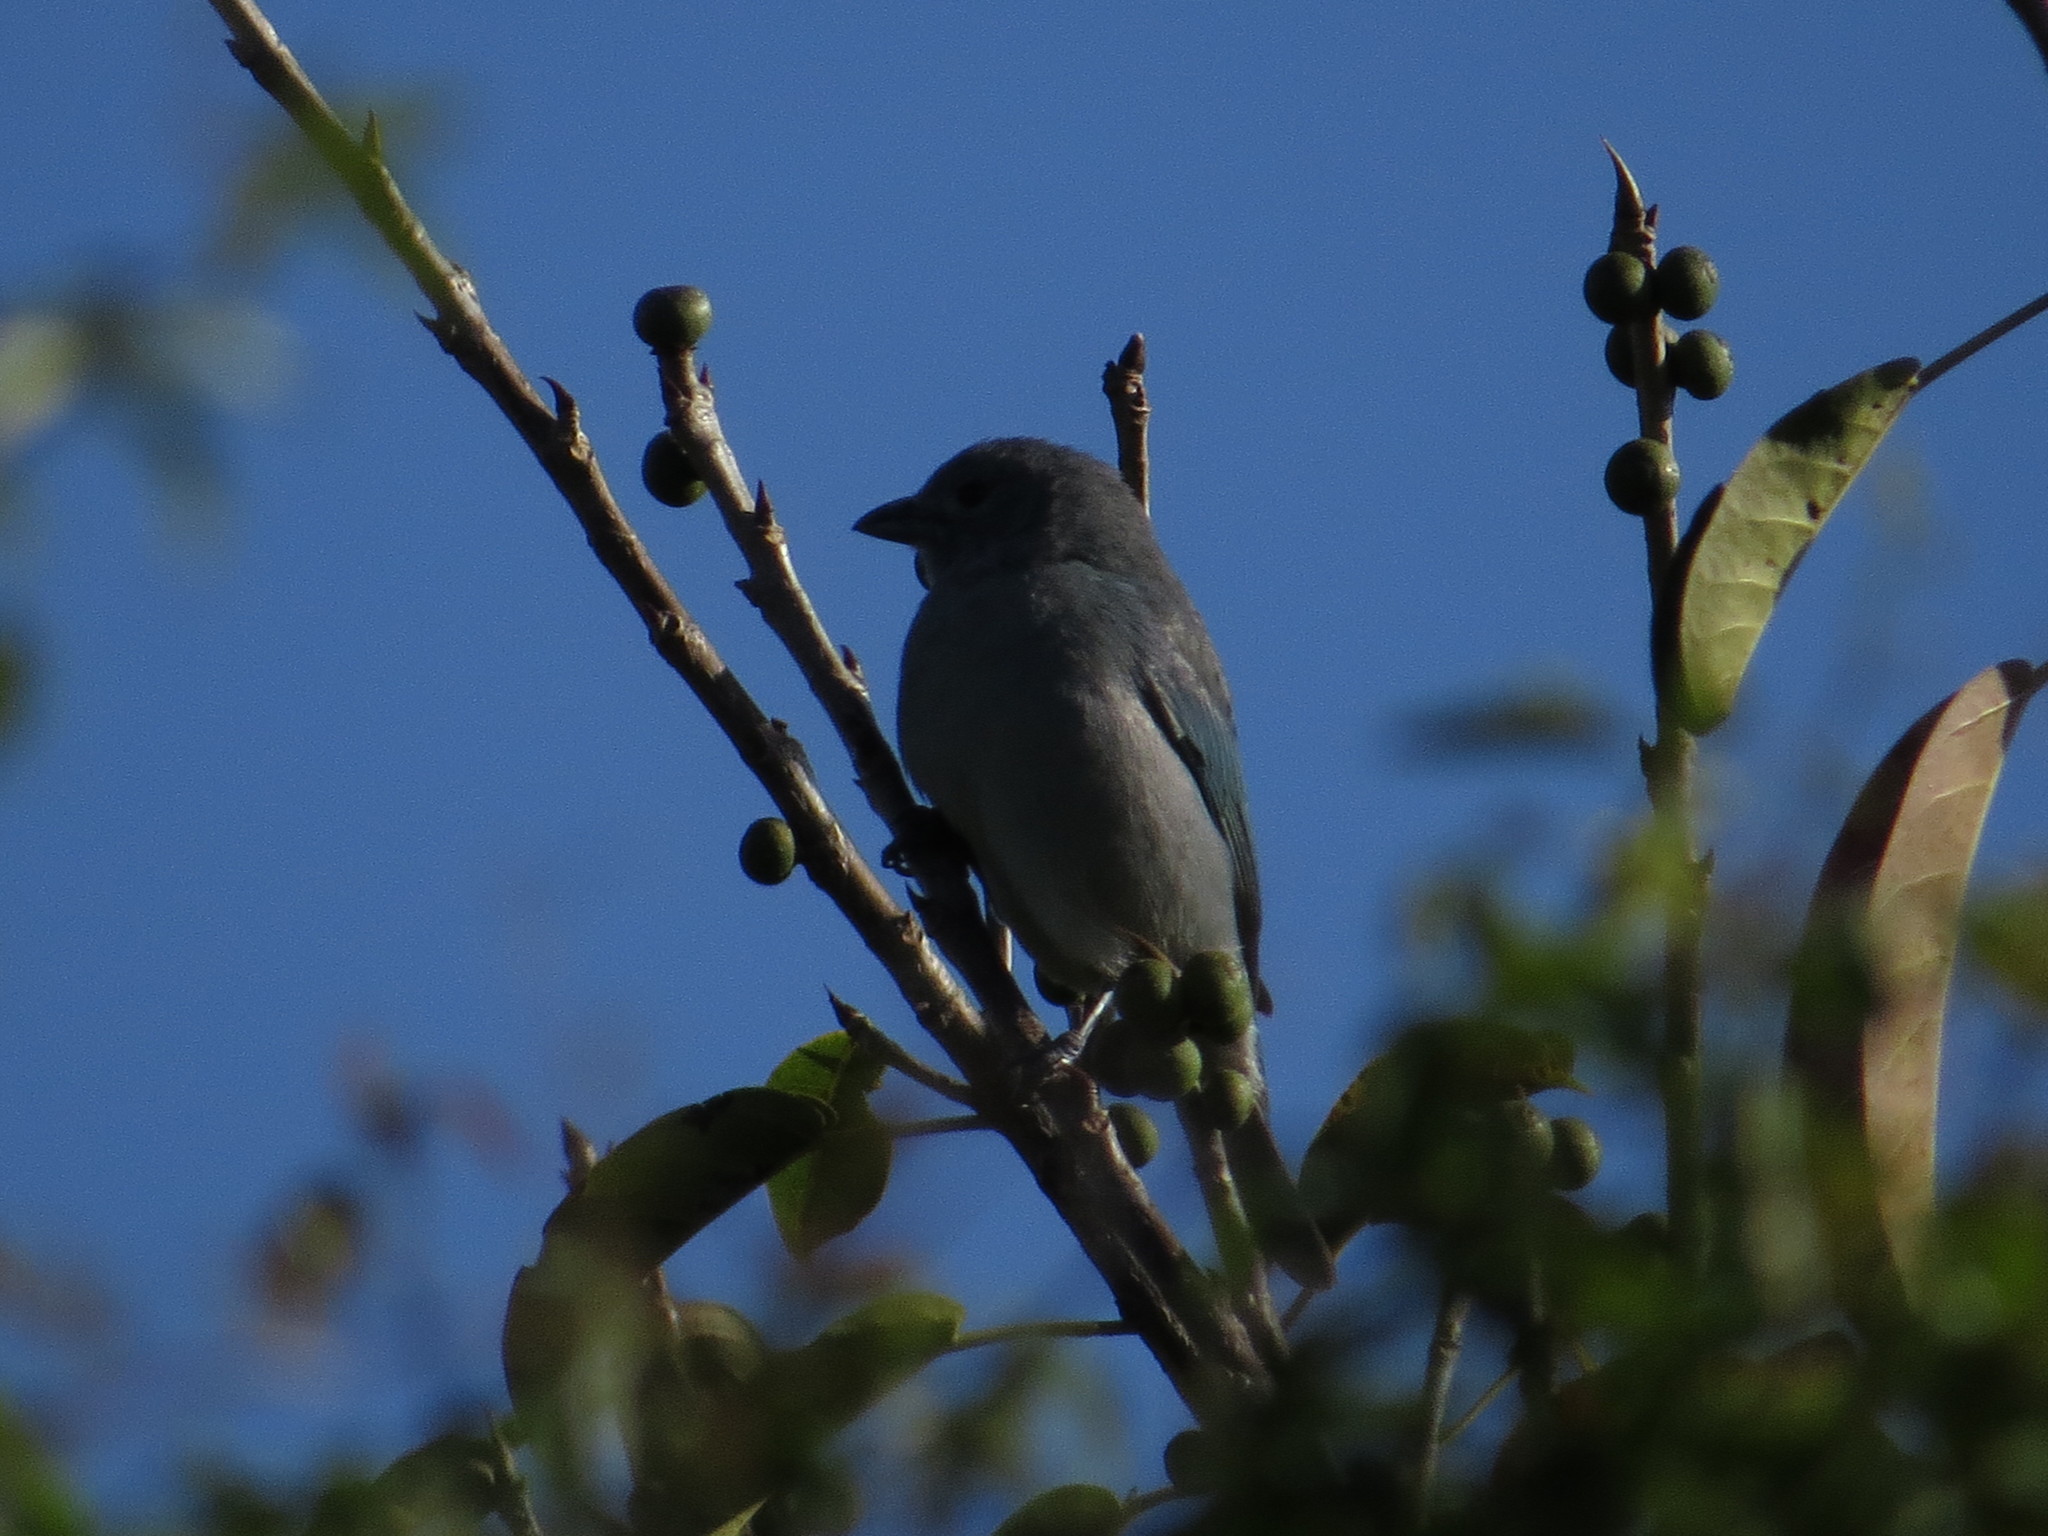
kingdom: Animalia
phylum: Chordata
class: Aves
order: Passeriformes
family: Thraupidae
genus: Thraupis
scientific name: Thraupis sayaca
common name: Sayaca tanager
